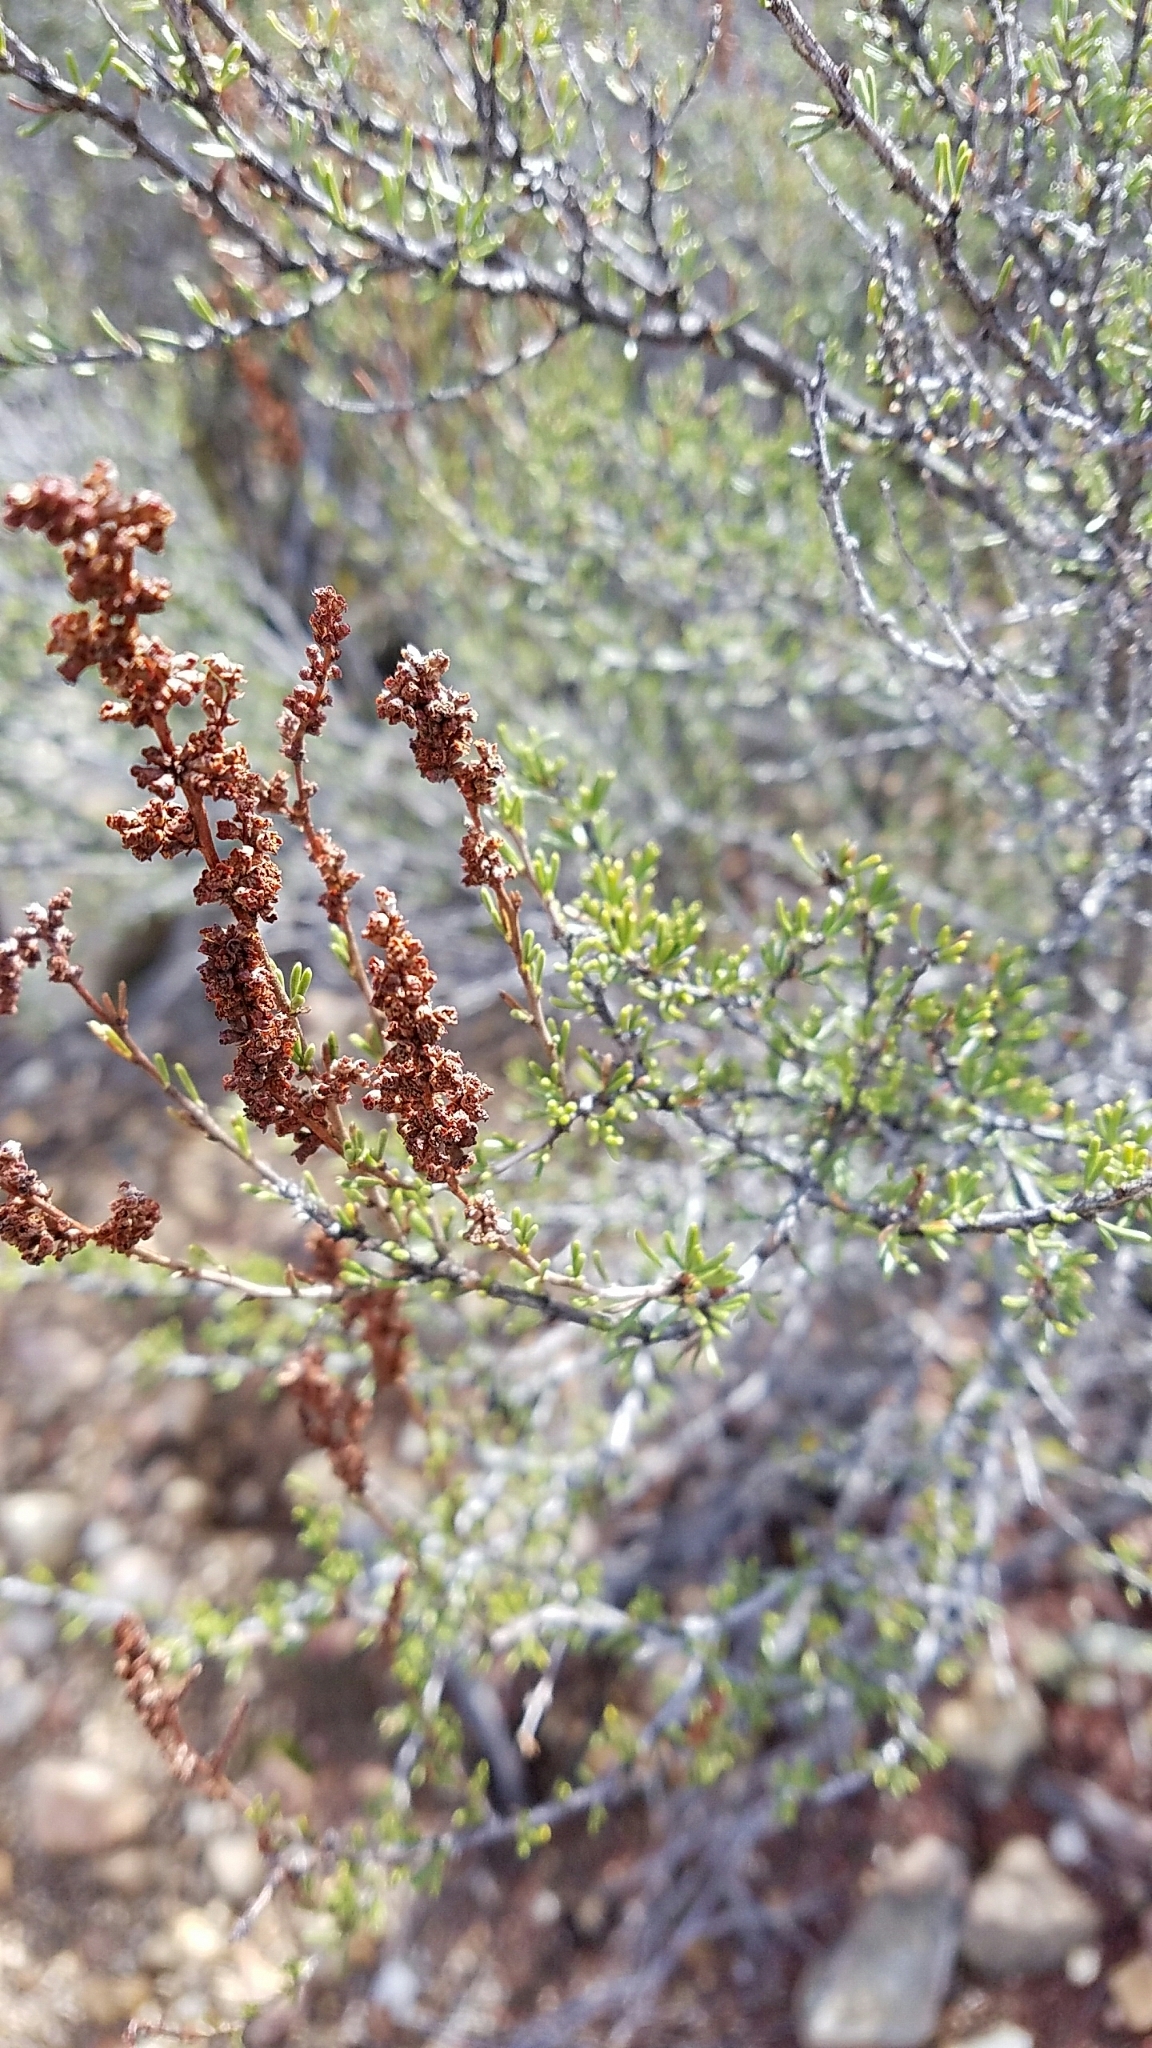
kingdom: Plantae
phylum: Tracheophyta
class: Magnoliopsida
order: Rosales
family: Rosaceae
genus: Adenostoma
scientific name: Adenostoma fasciculatum
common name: Chamise
